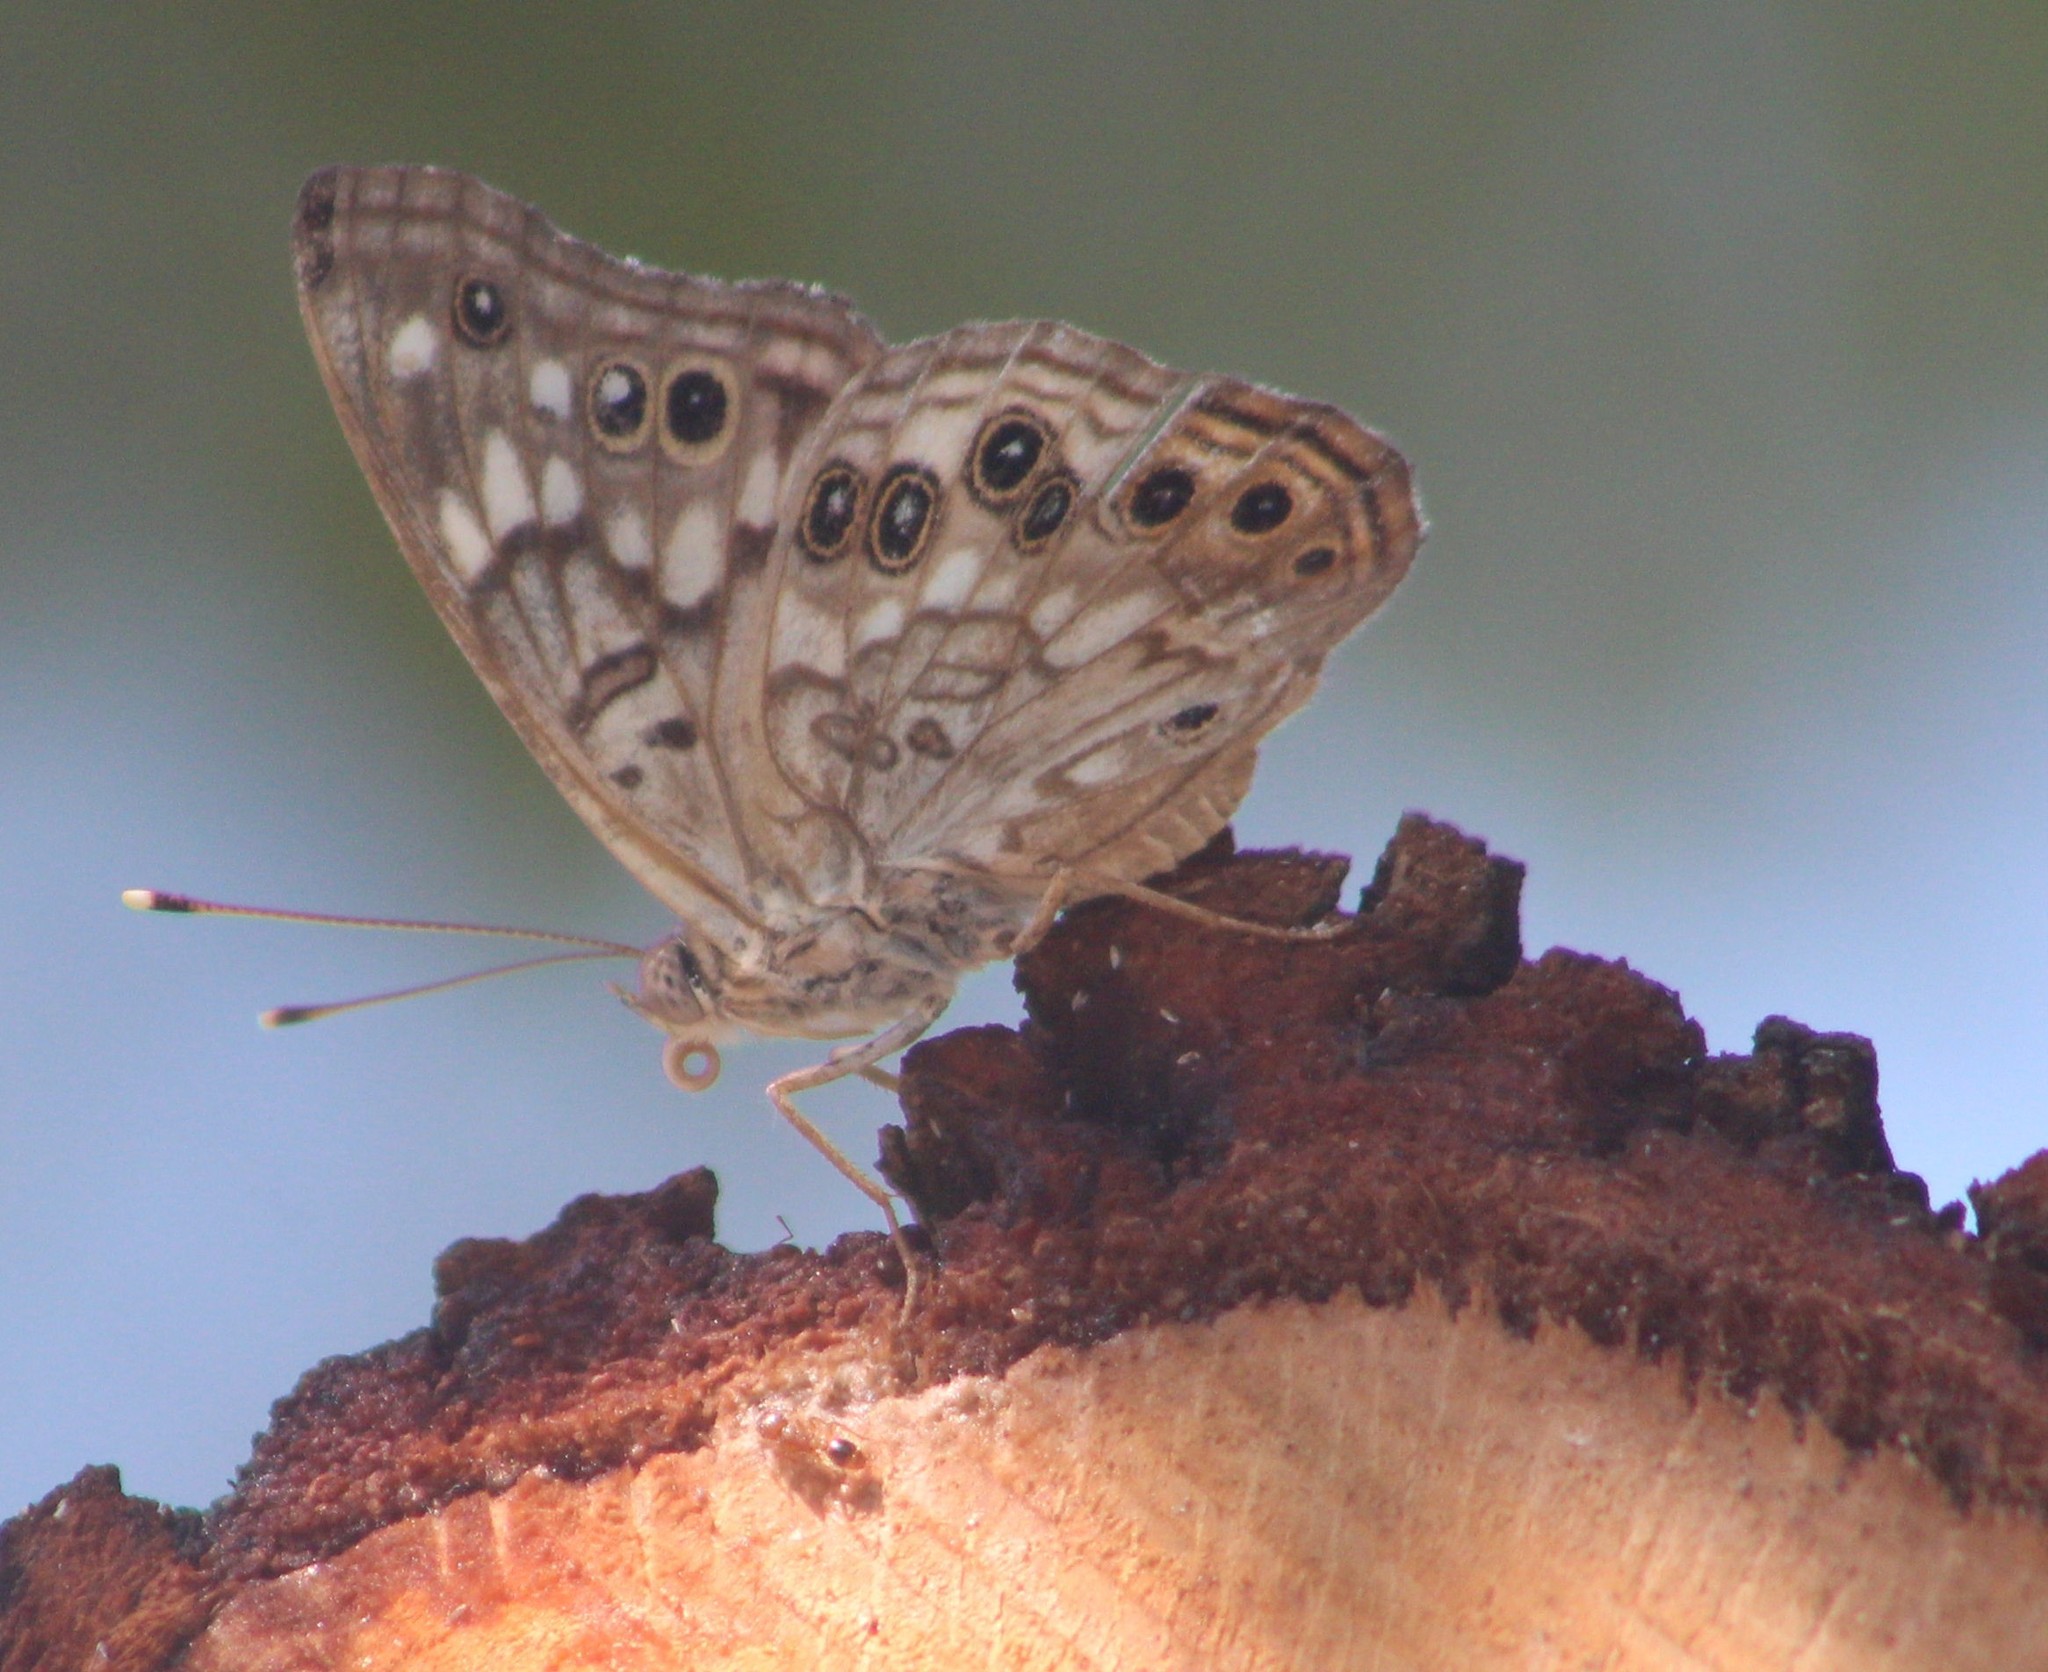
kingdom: Animalia
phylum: Arthropoda
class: Insecta
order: Lepidoptera
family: Nymphalidae
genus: Asterocampa
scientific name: Asterocampa celtis
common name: Hackberry emperor
